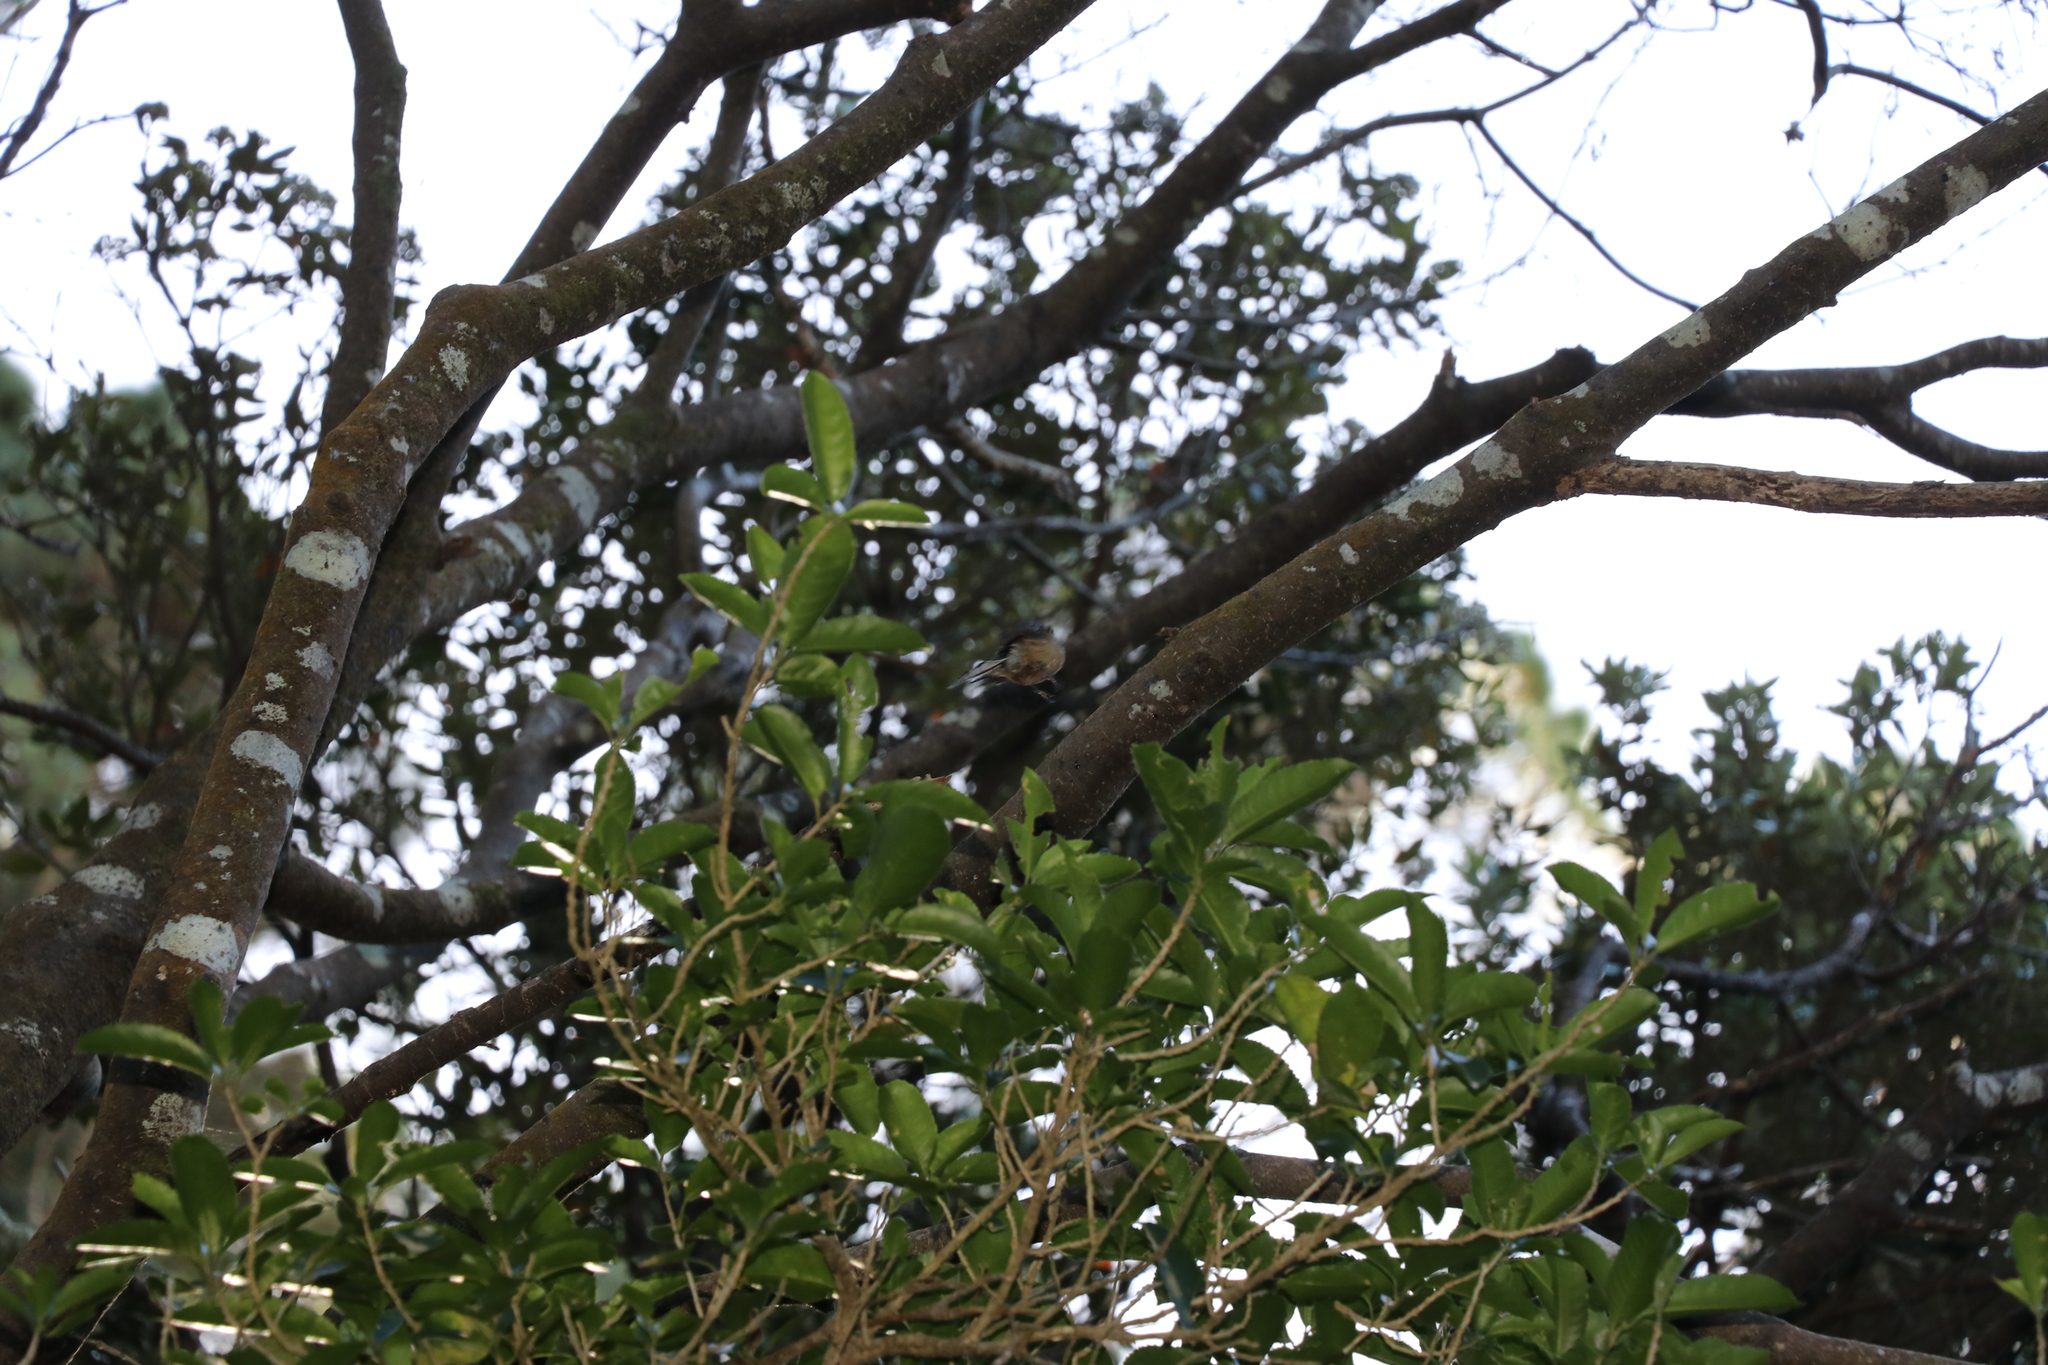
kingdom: Animalia
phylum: Chordata
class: Aves
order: Passeriformes
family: Rhipiduridae
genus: Rhipidura
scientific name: Rhipidura fuliginosa
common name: New zealand fantail
